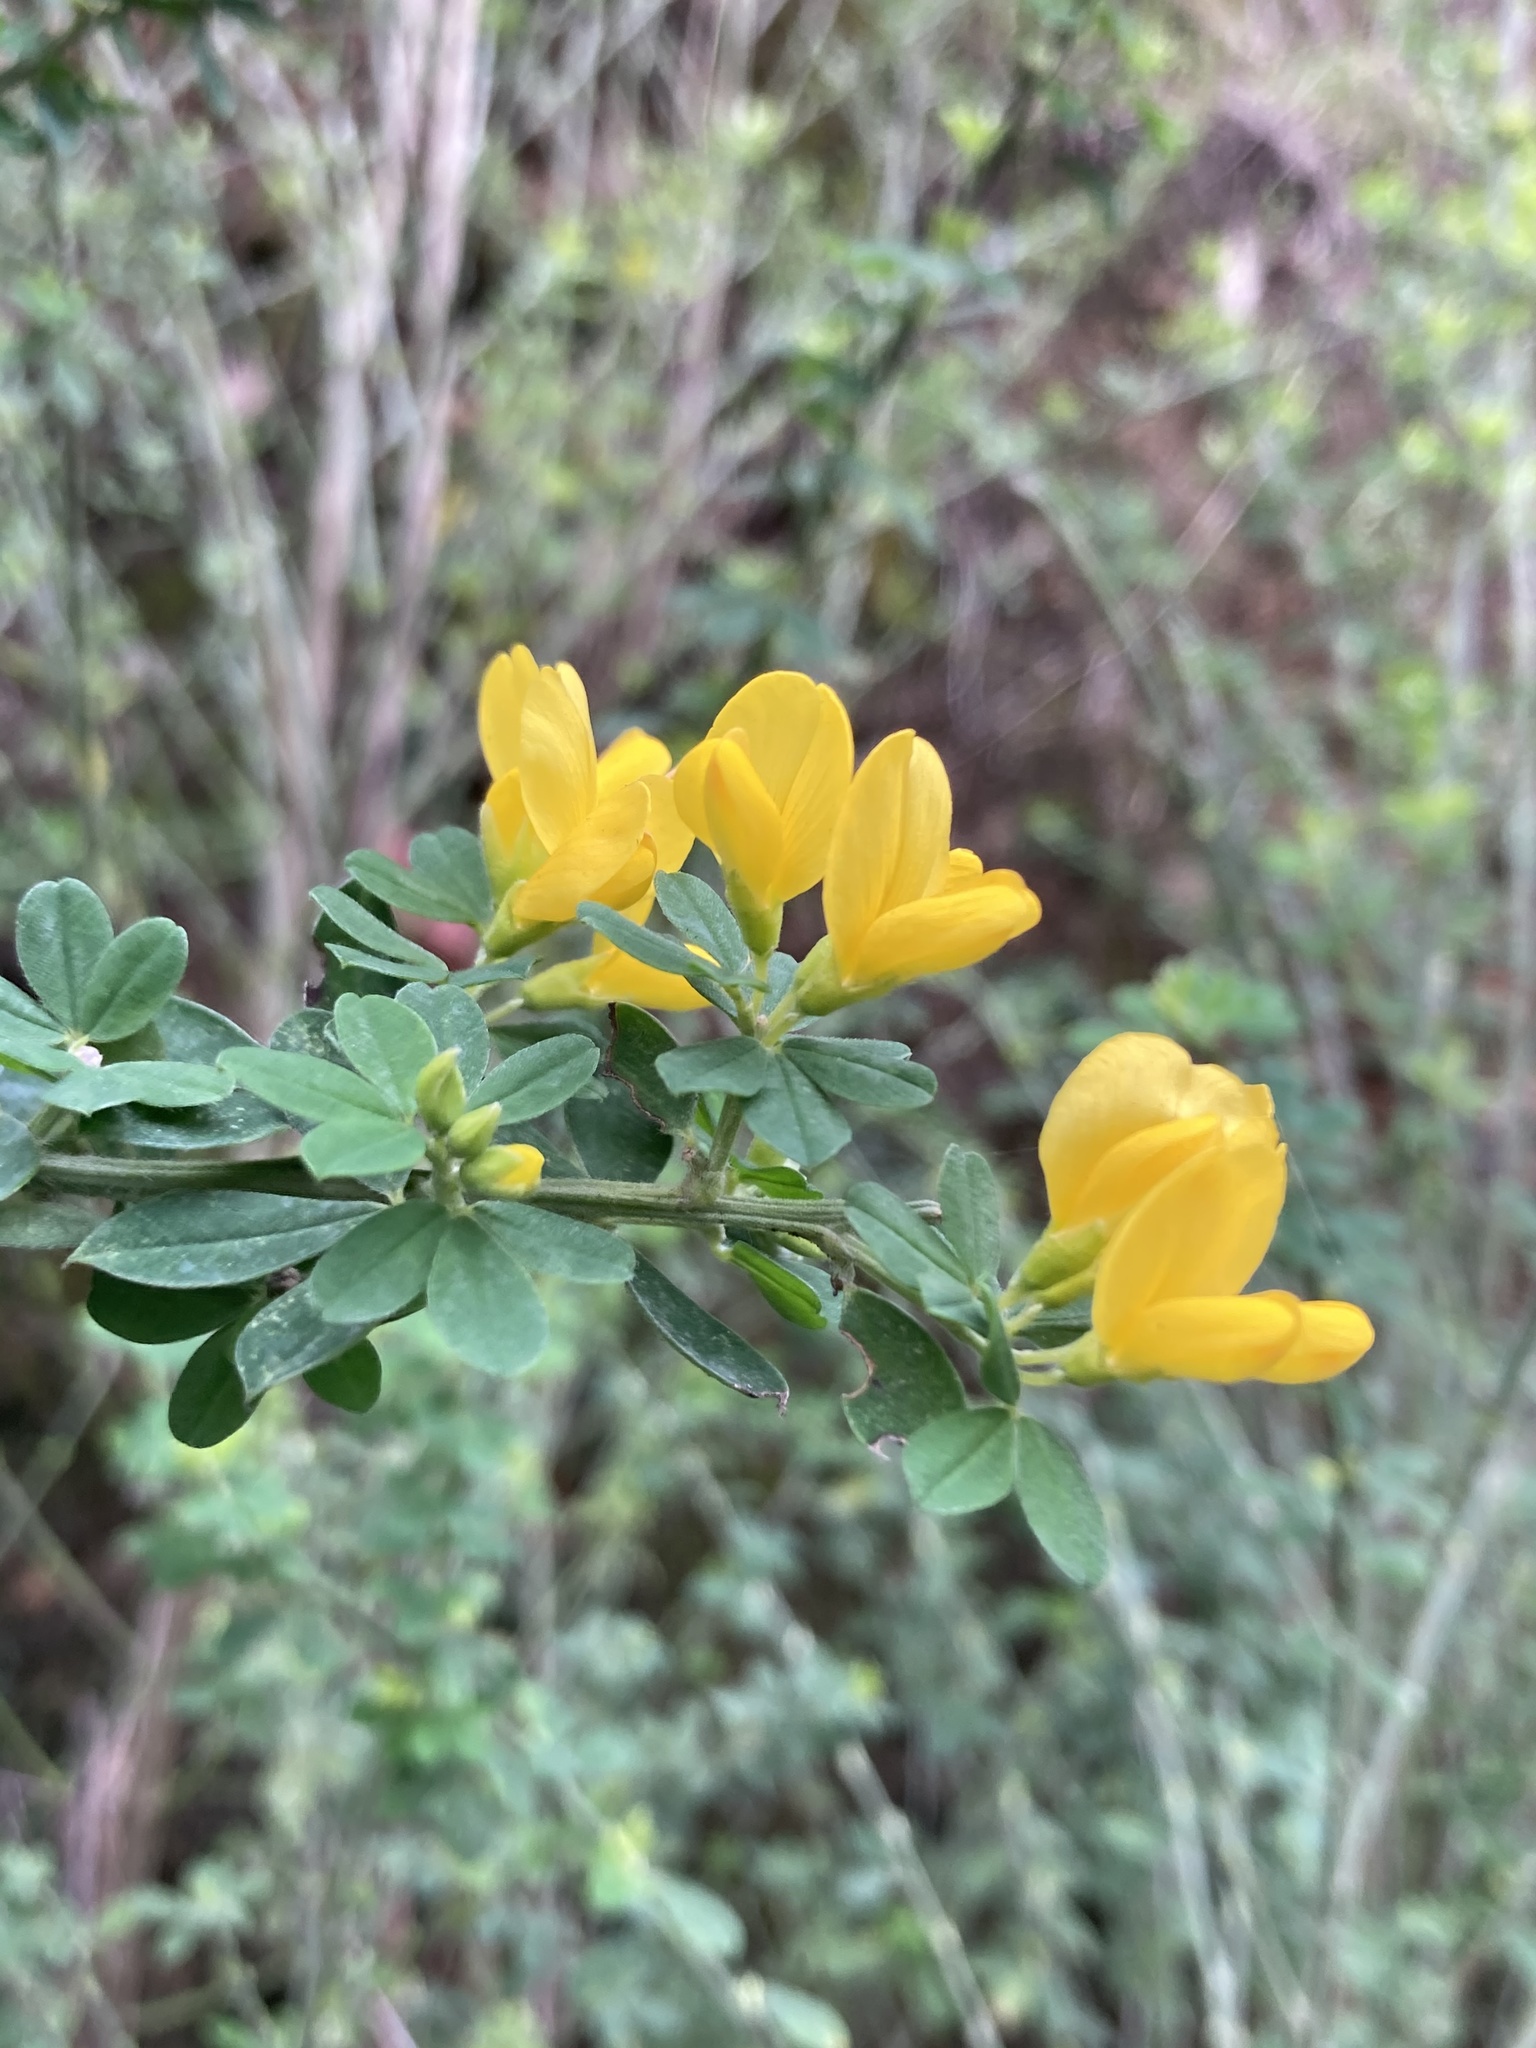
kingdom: Plantae
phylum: Tracheophyta
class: Magnoliopsida
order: Fabales
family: Fabaceae
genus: Genista
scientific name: Genista monspessulana
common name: Montpellier broom
